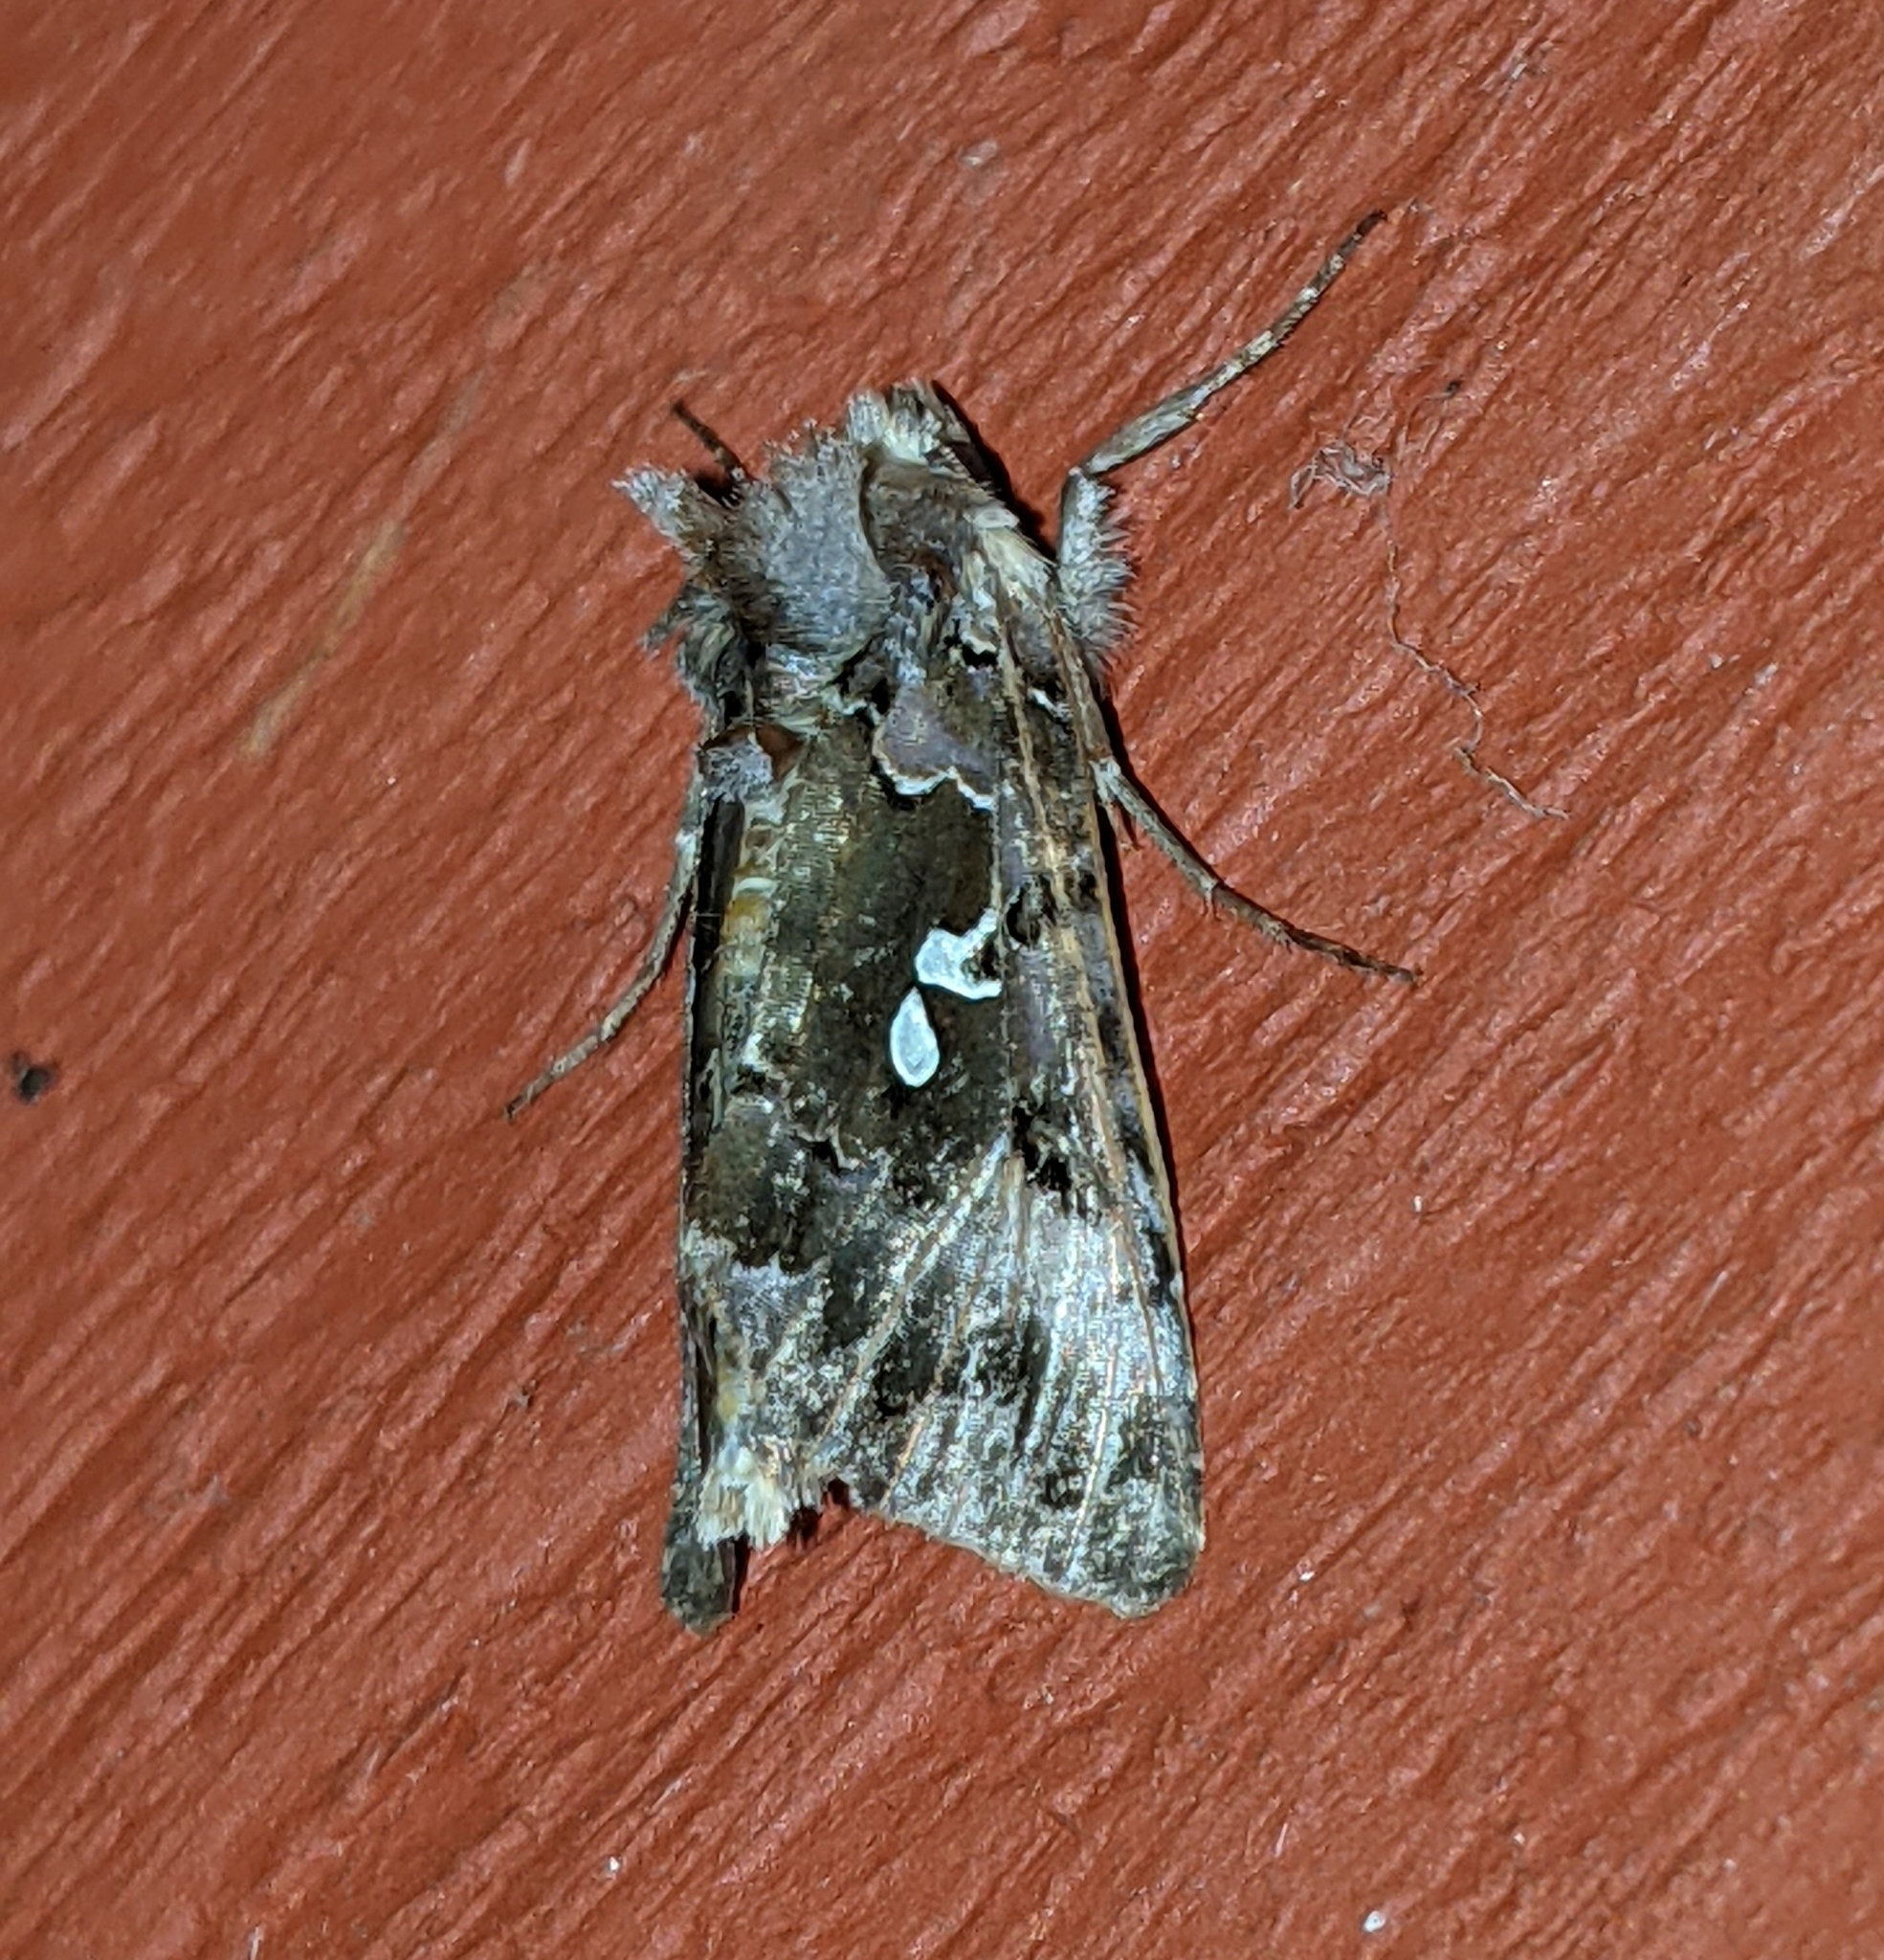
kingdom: Animalia
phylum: Arthropoda
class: Insecta
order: Lepidoptera
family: Noctuidae
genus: Autographa
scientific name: Autographa corusca
